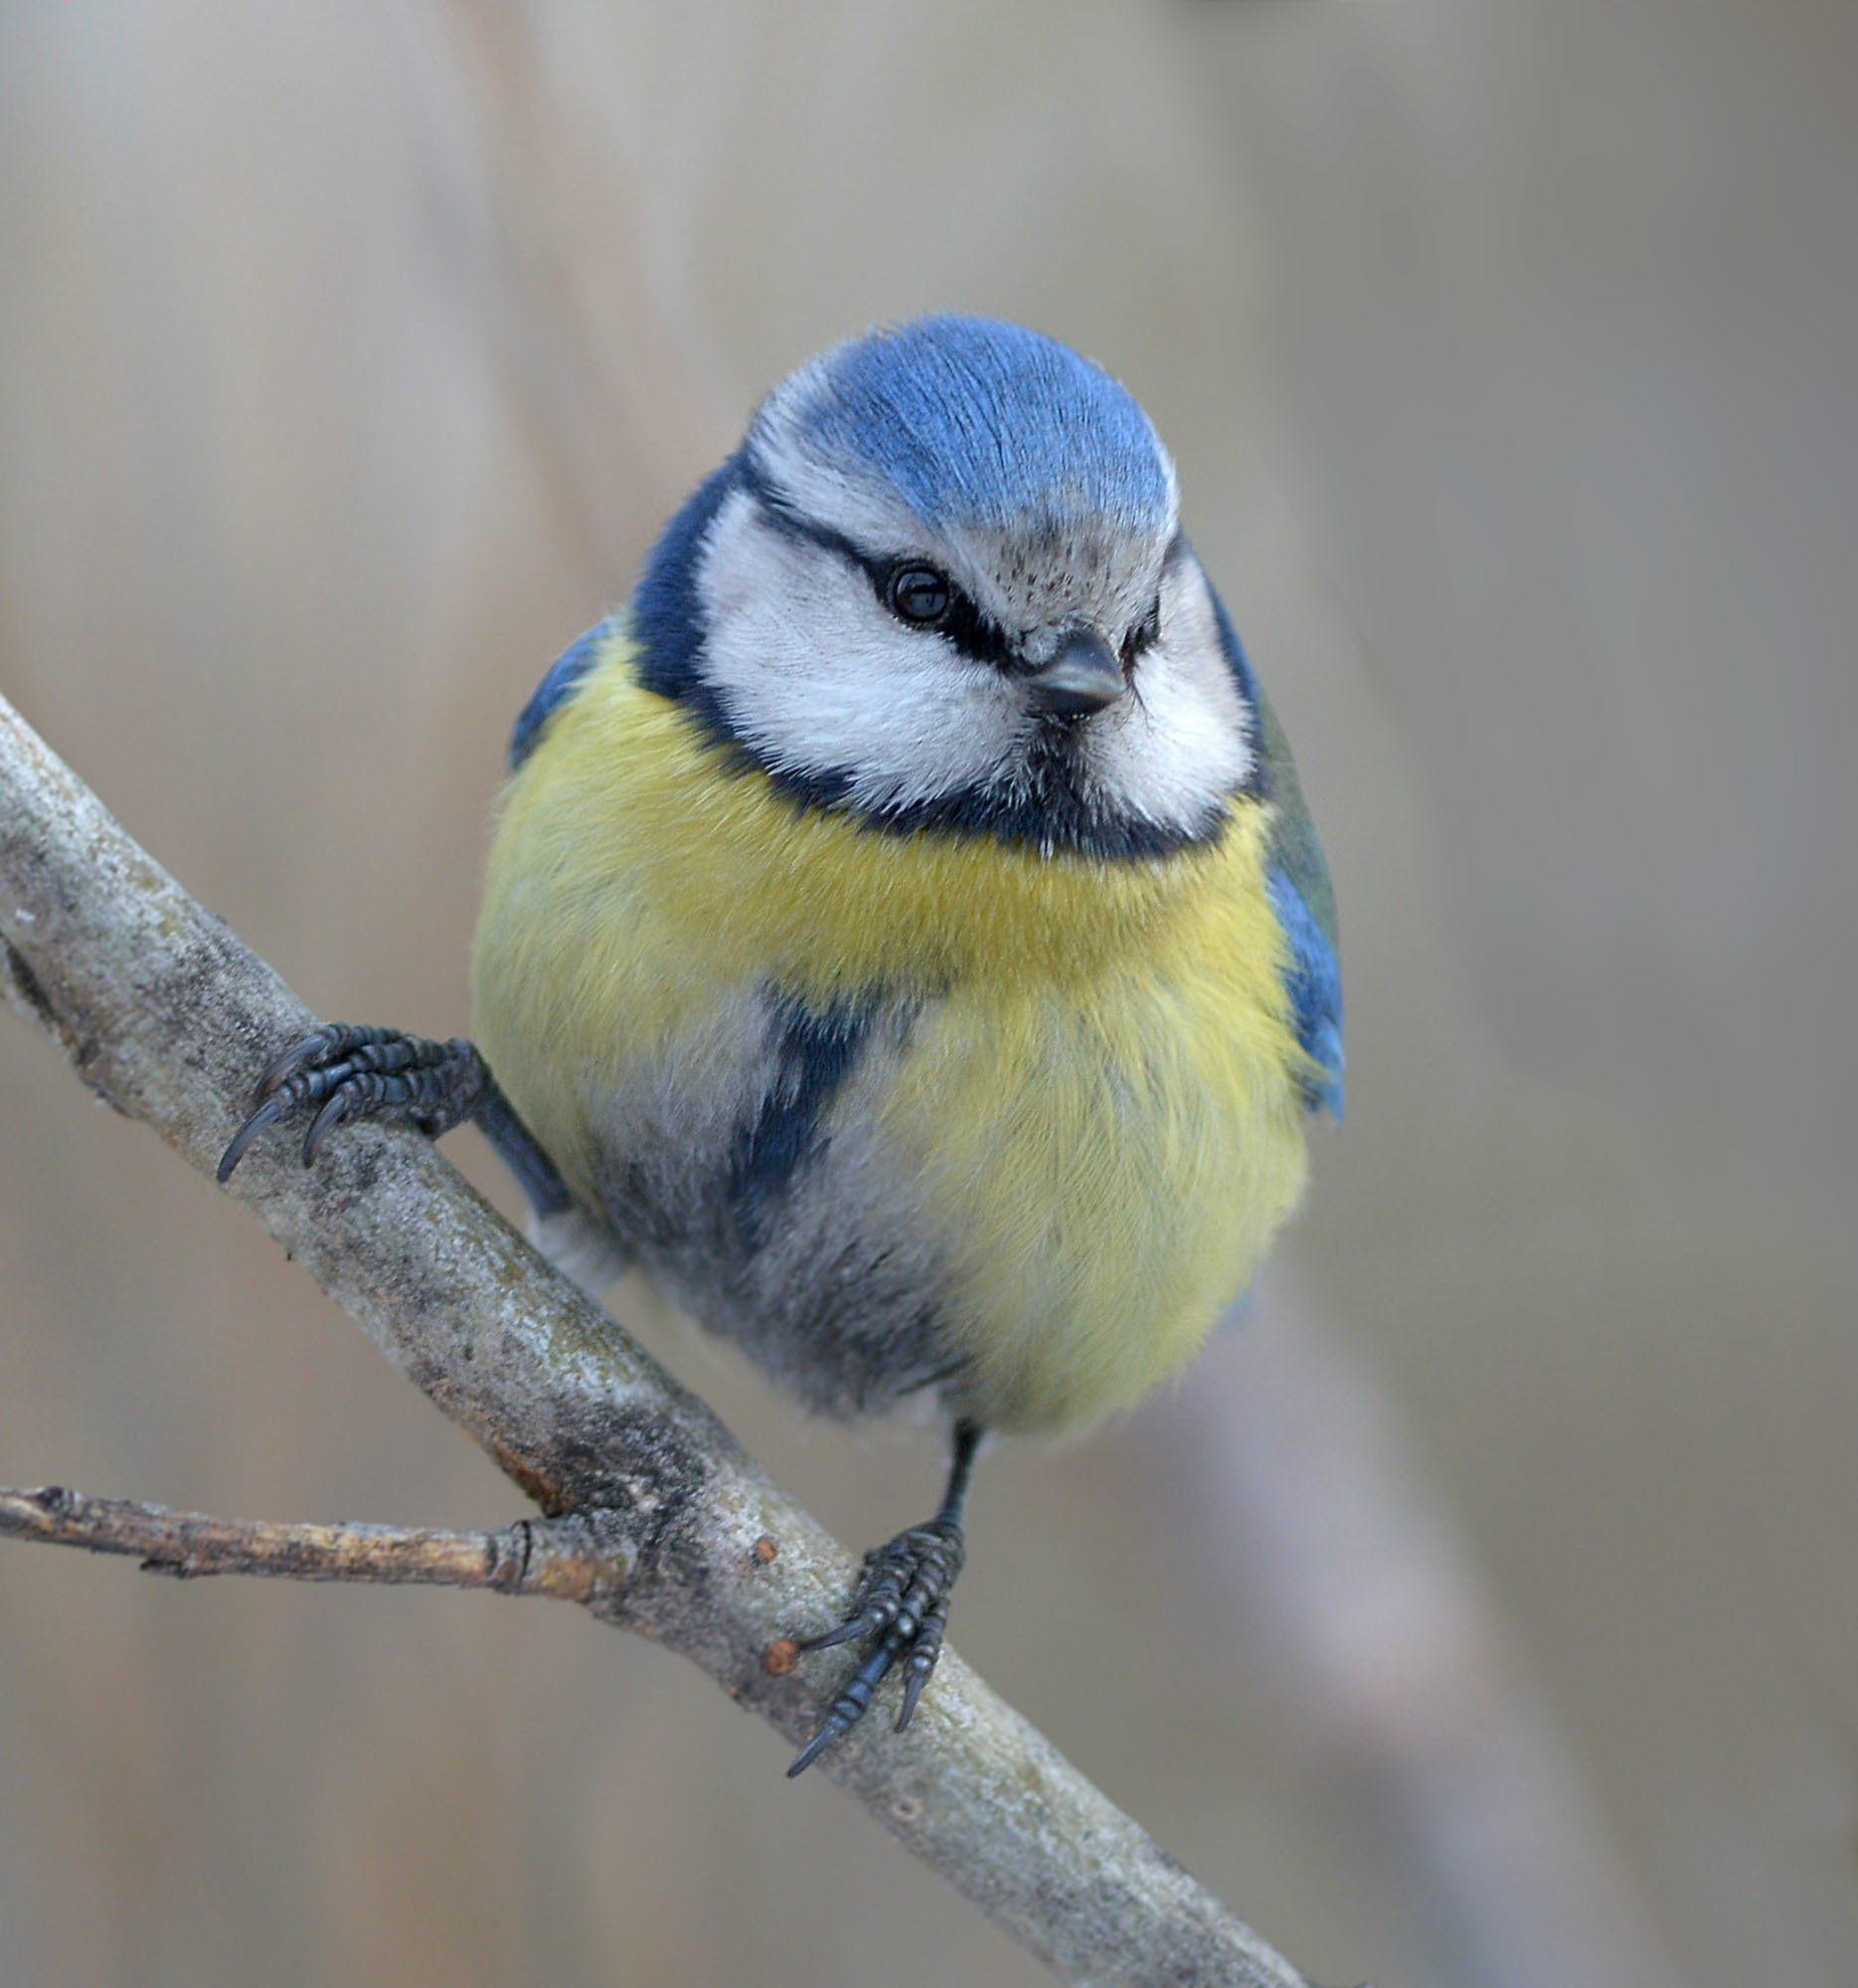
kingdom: Animalia
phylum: Chordata
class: Aves
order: Passeriformes
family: Paridae
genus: Cyanistes
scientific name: Cyanistes caeruleus
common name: Eurasian blue tit
